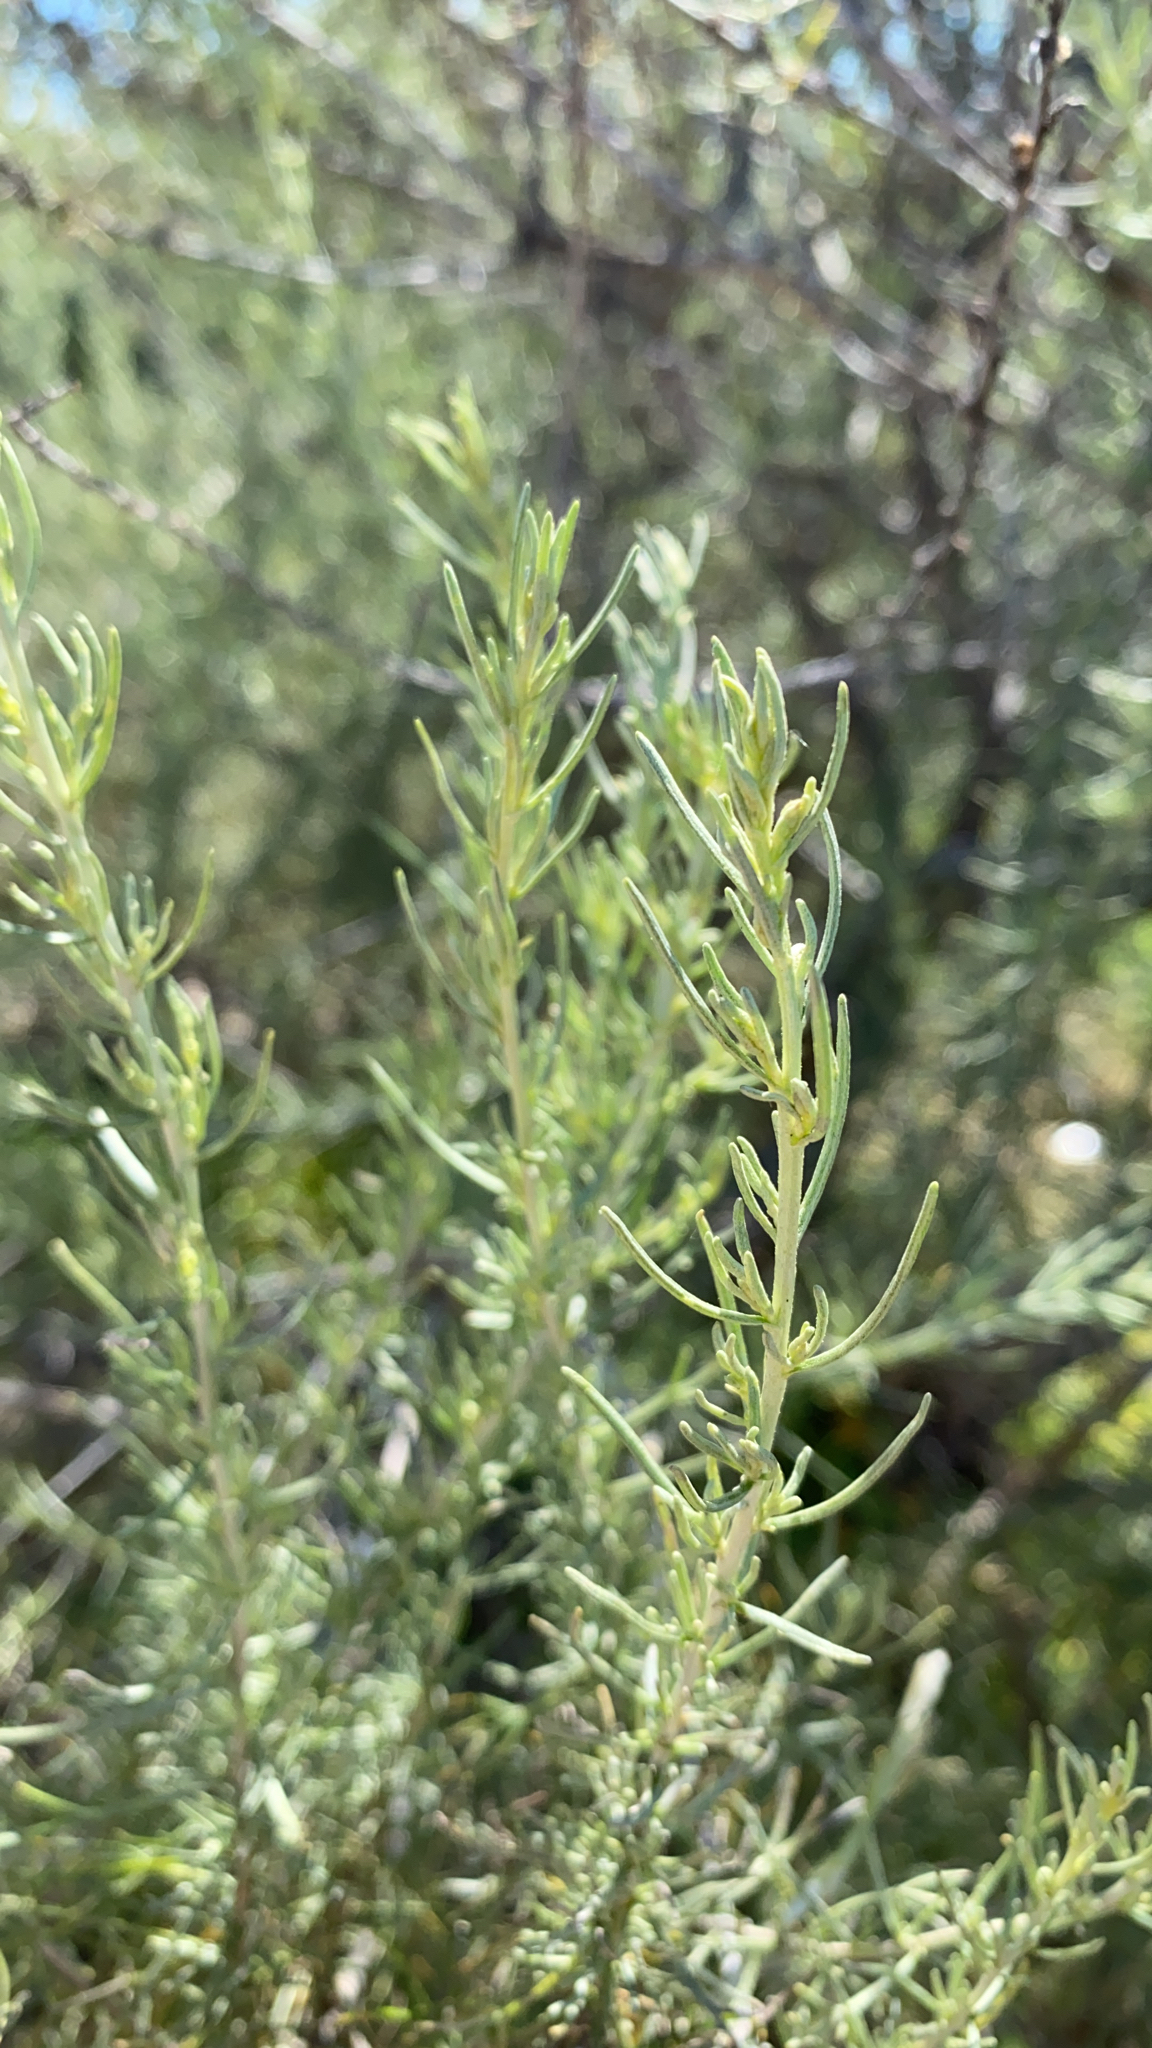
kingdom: Plantae
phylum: Tracheophyta
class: Magnoliopsida
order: Asterales
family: Asteraceae
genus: Artemisia
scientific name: Artemisia californica
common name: California sagebrush
